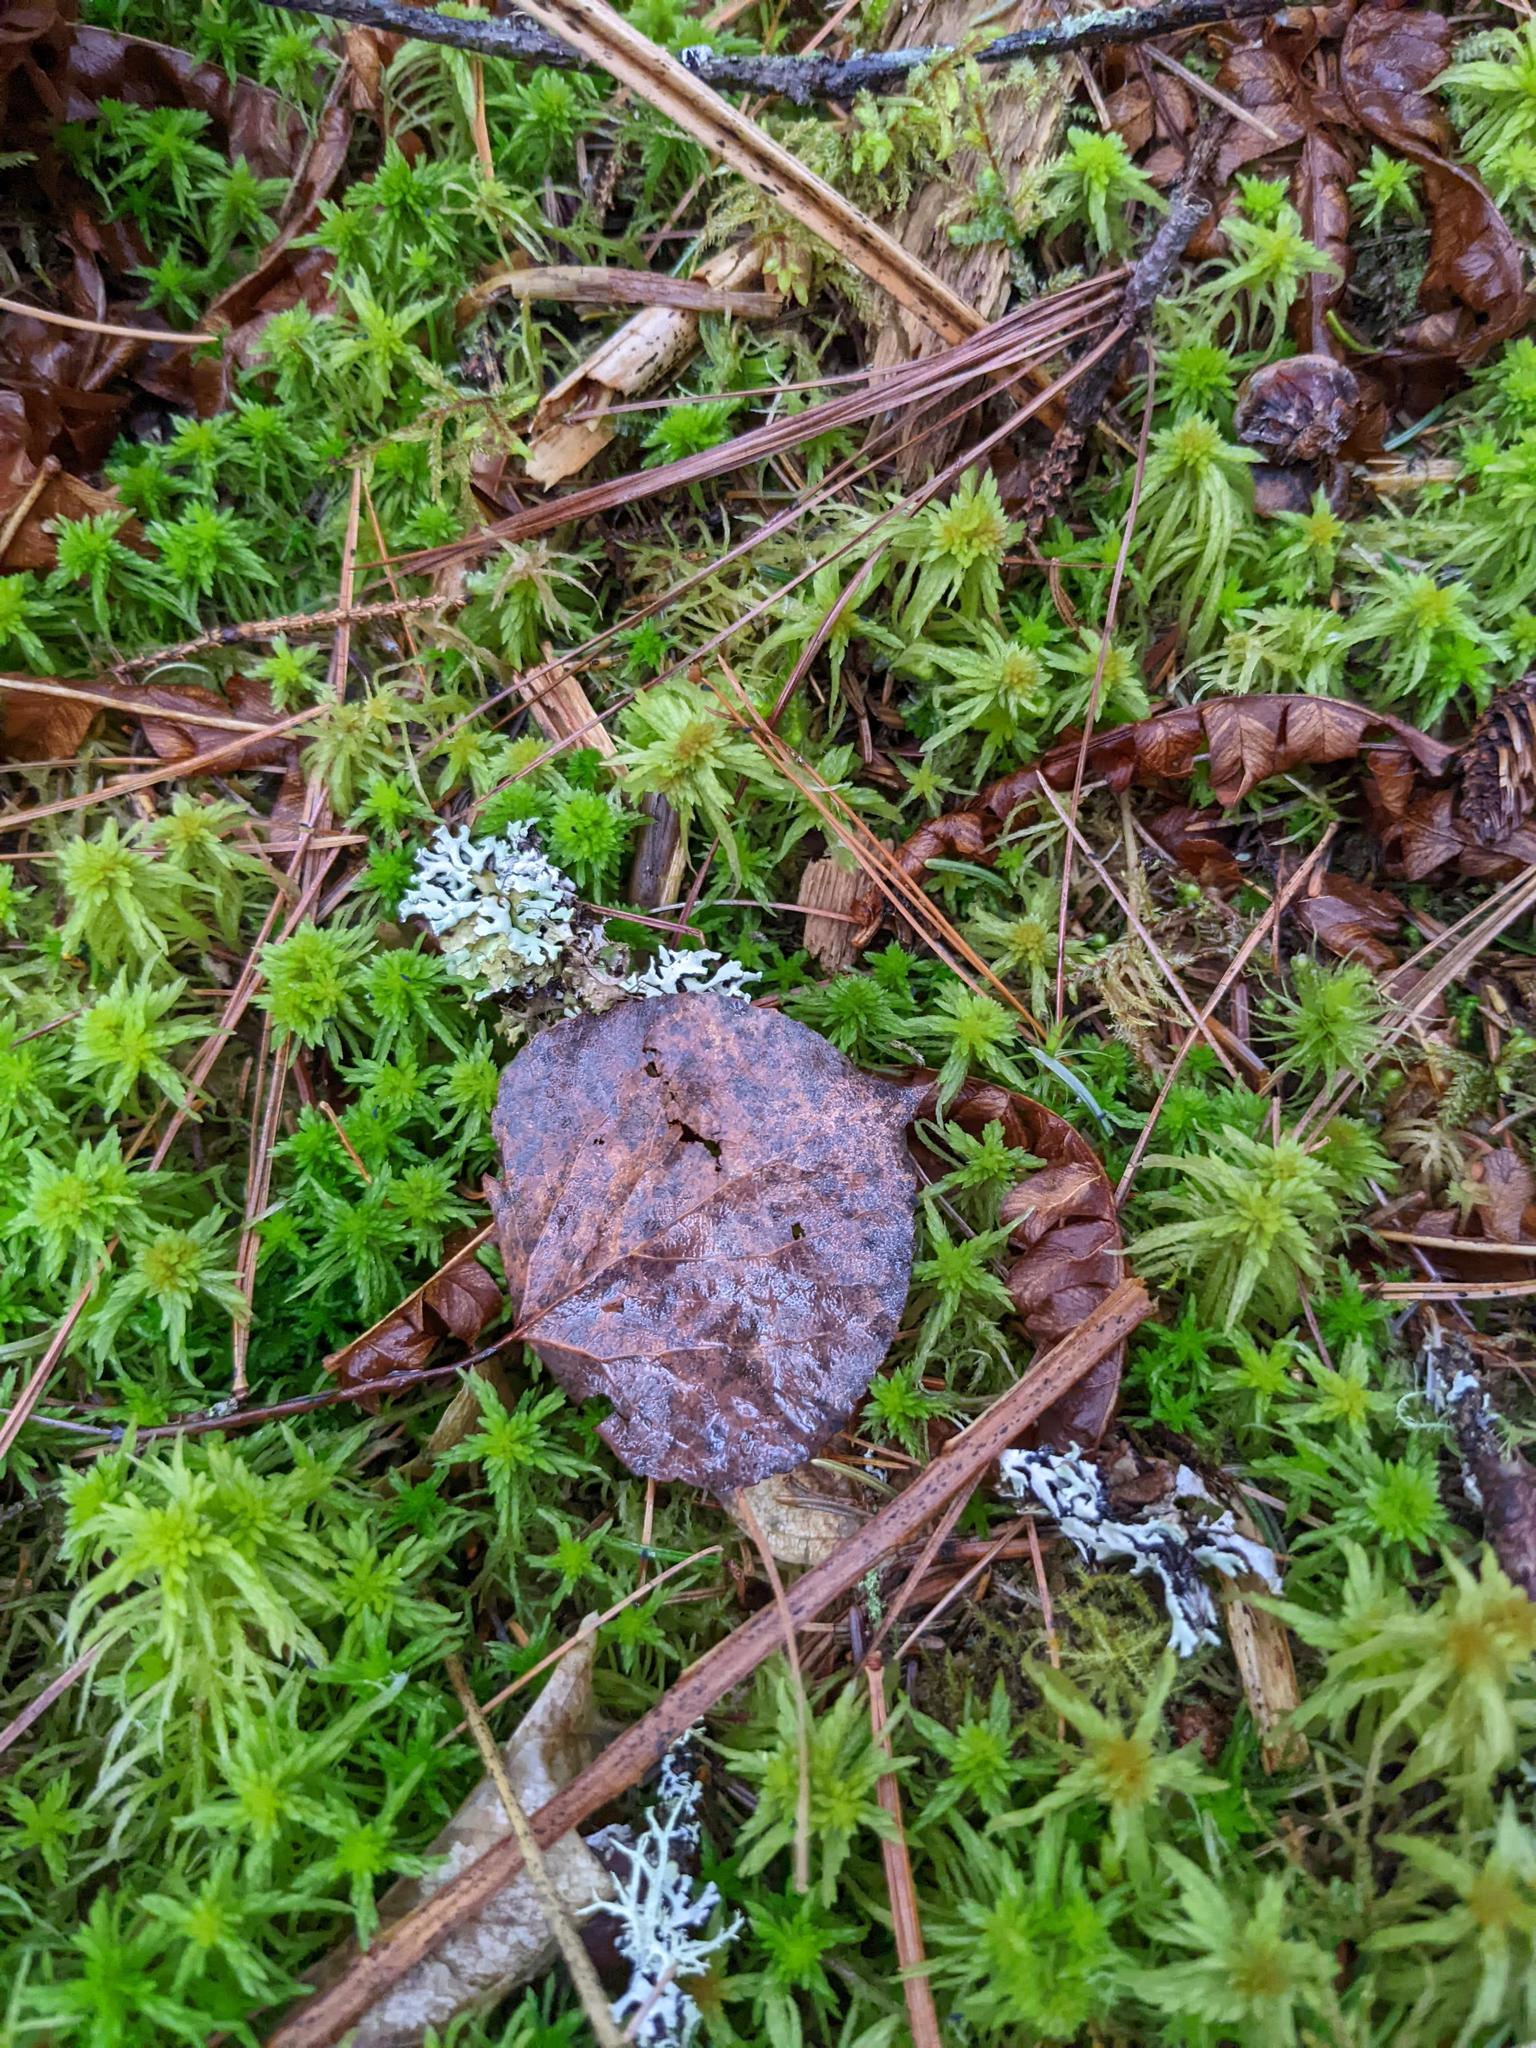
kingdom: Plantae
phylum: Tracheophyta
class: Magnoliopsida
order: Malpighiales
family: Salicaceae
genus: Populus
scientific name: Populus tremuloides
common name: Quaking aspen
